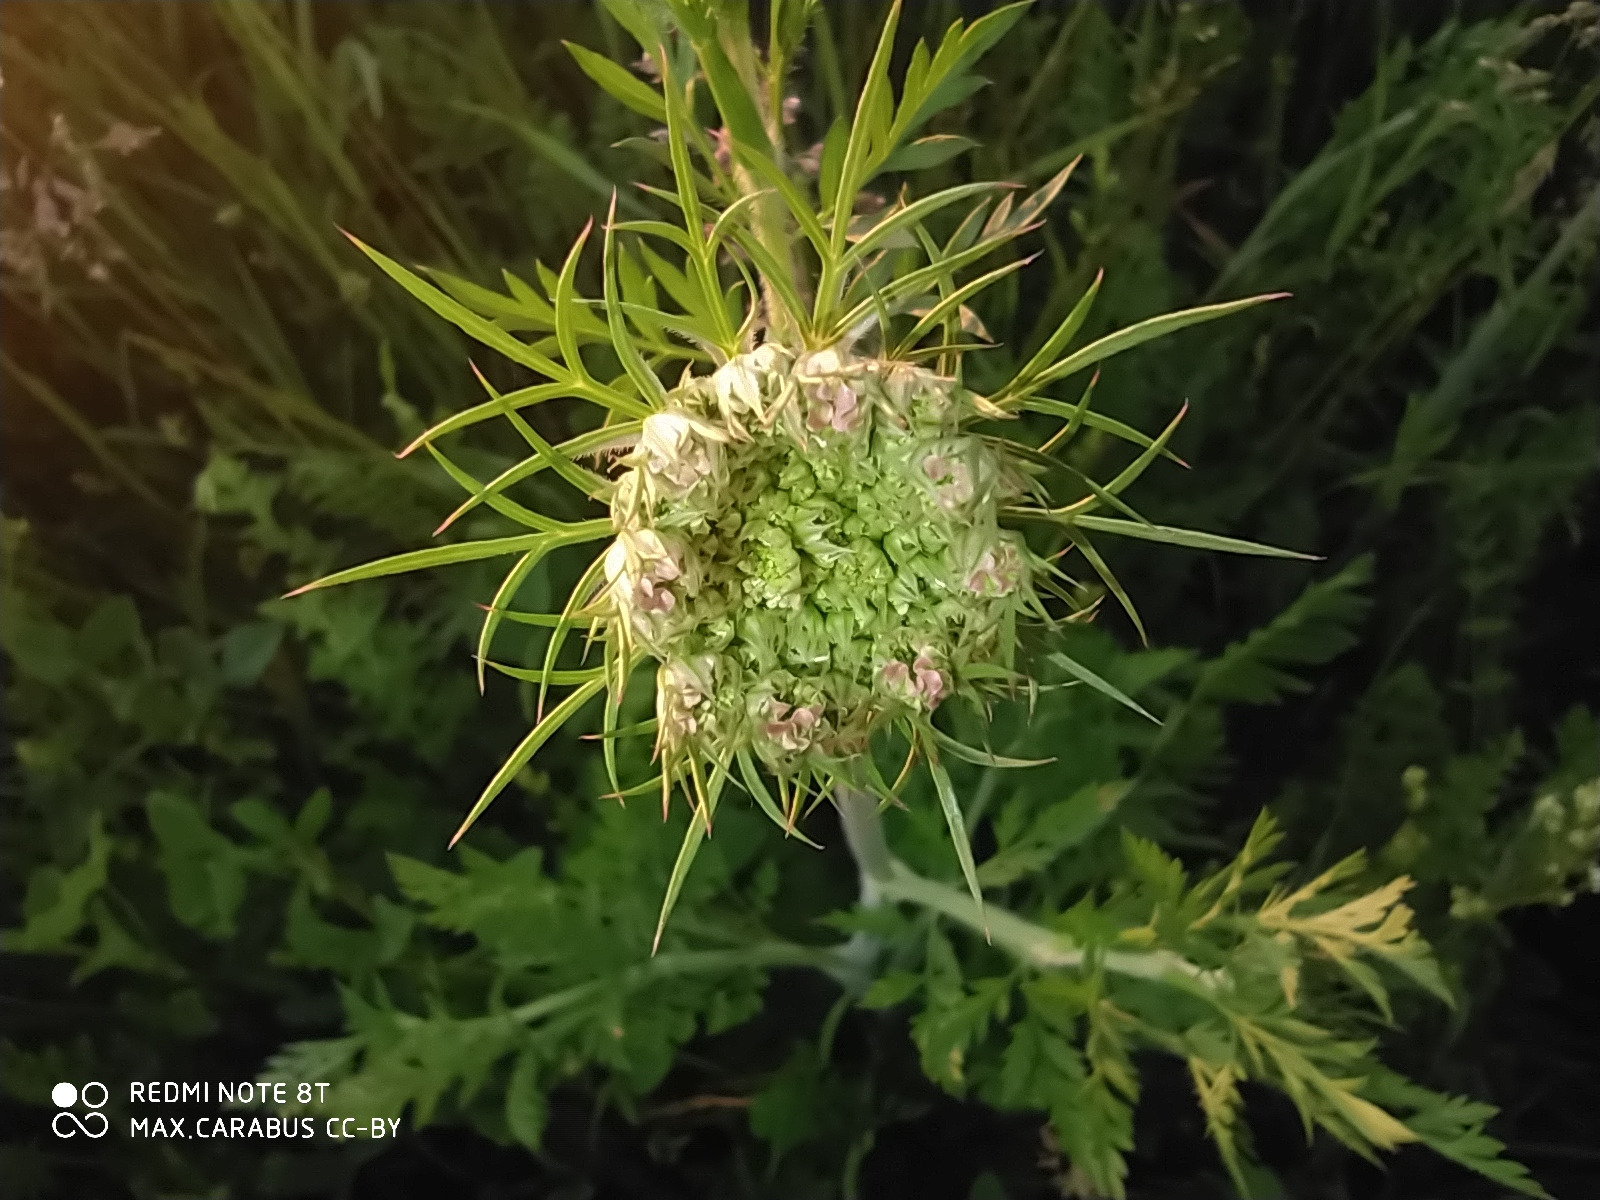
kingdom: Plantae
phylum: Tracheophyta
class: Magnoliopsida
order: Apiales
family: Apiaceae
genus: Daucus
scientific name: Daucus carota
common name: Wild carrot
